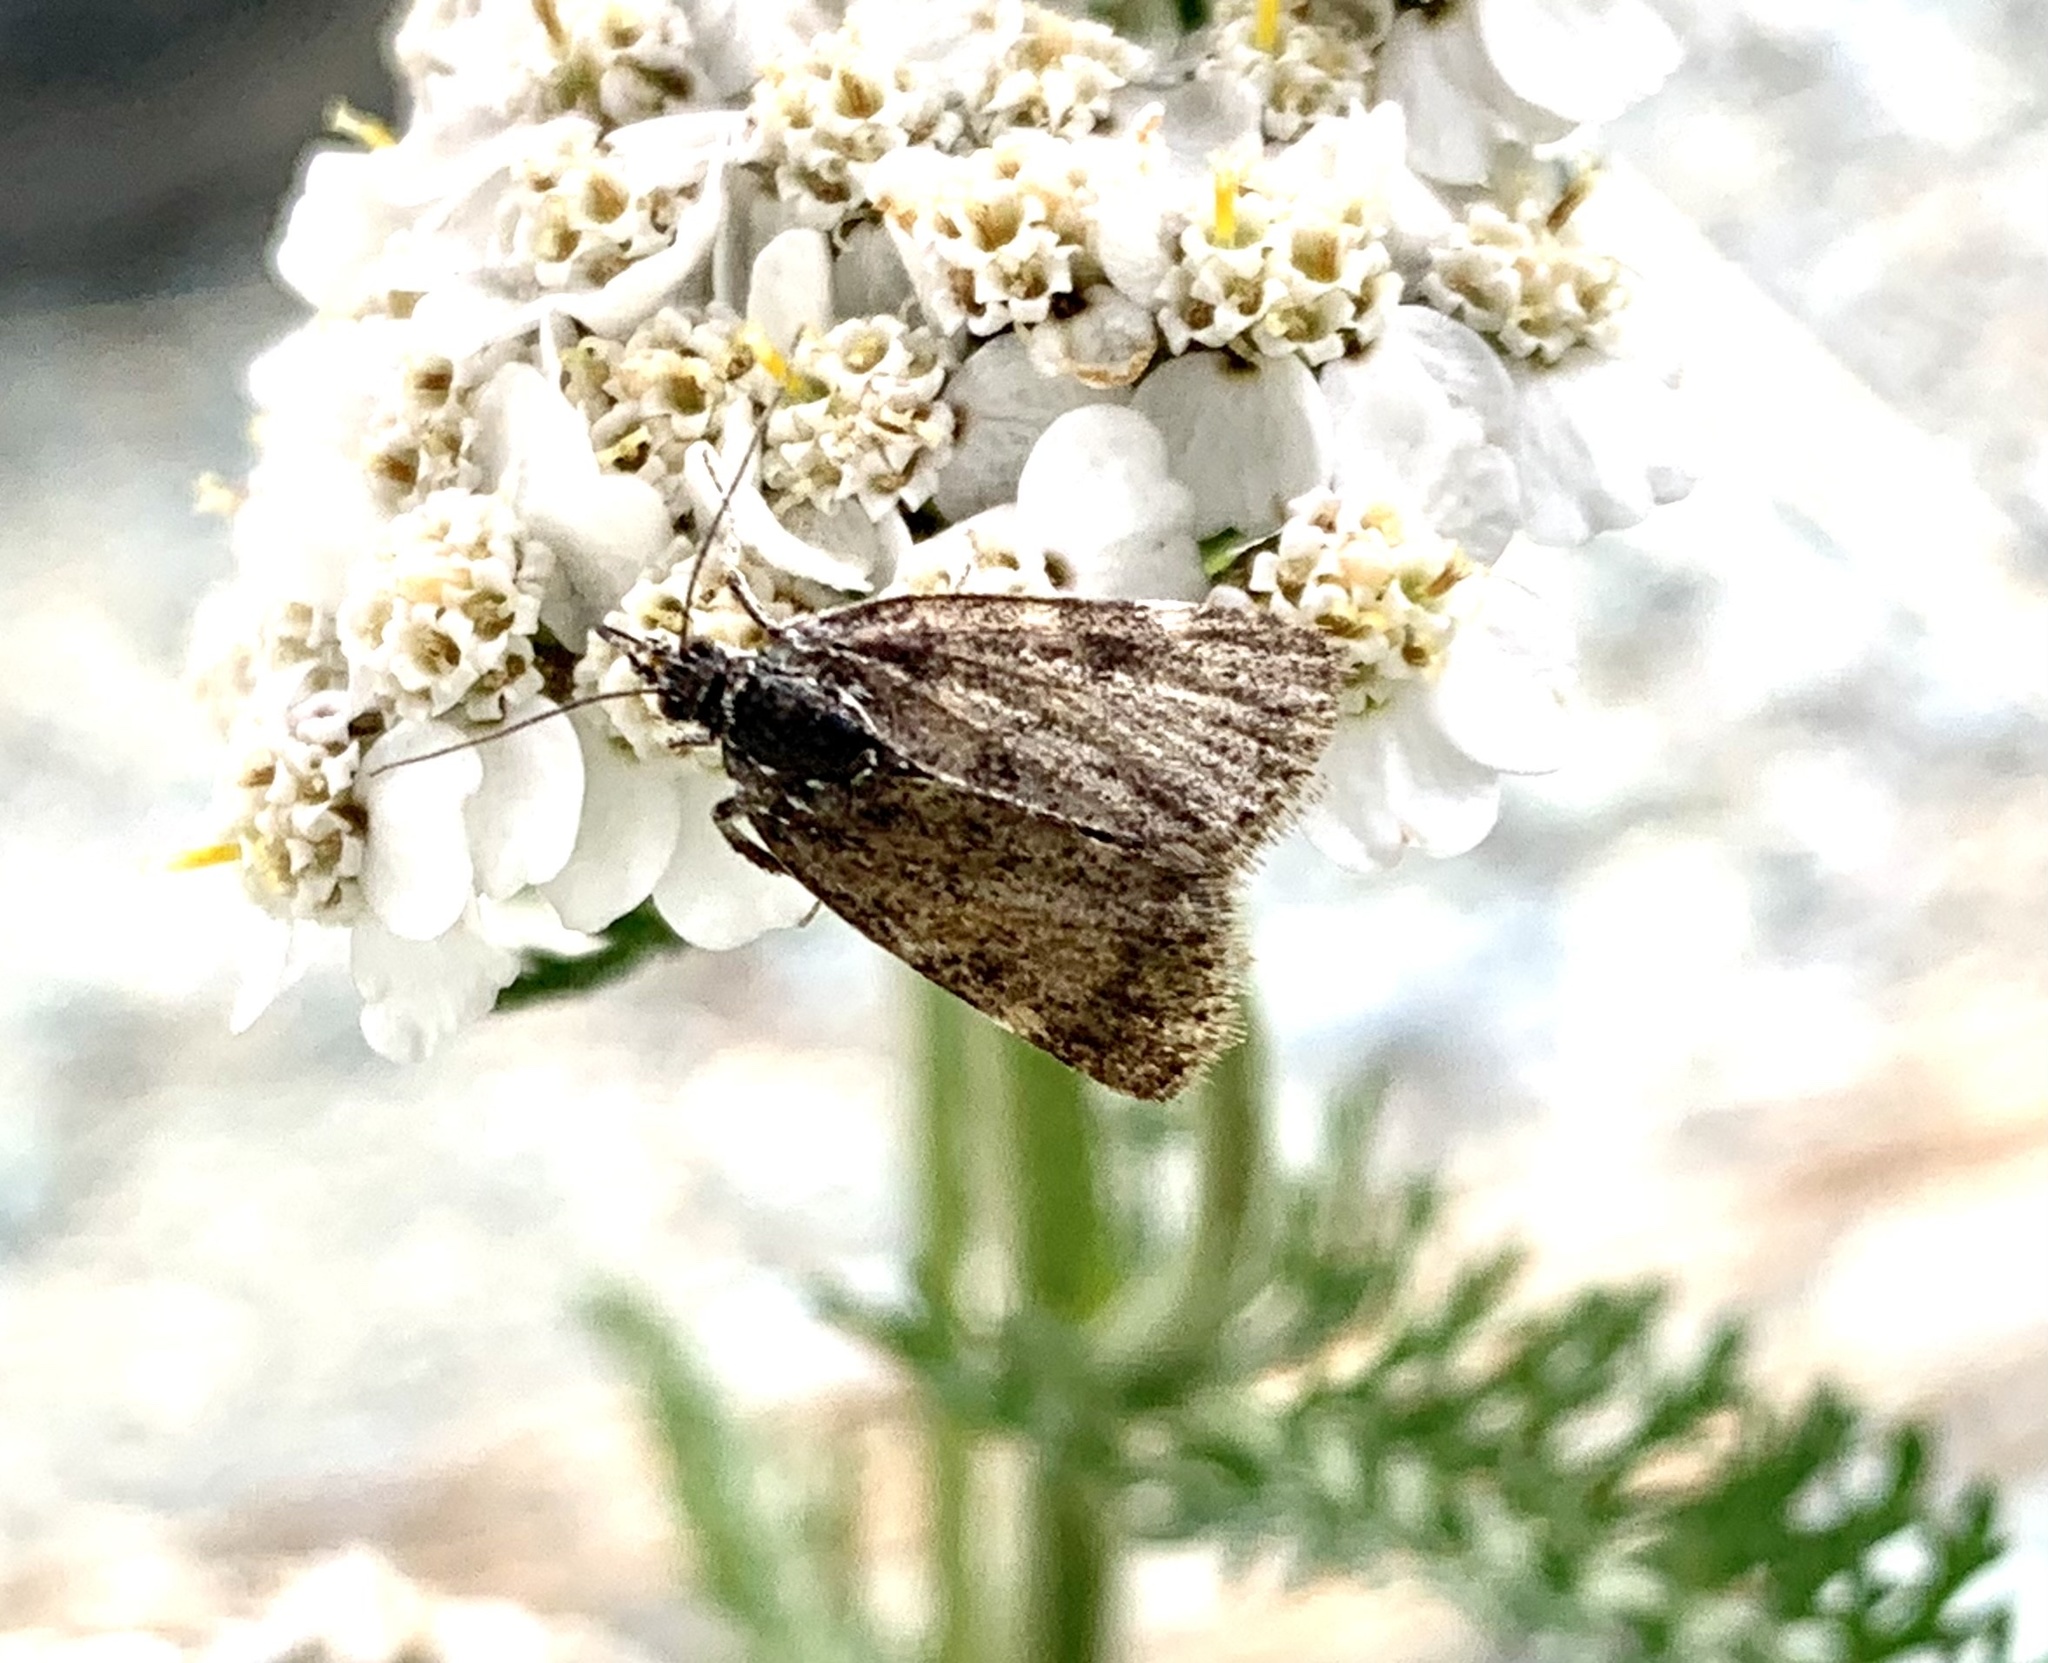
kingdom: Animalia
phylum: Arthropoda
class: Insecta
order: Lepidoptera
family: Crambidae
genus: Pyrausta
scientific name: Pyrausta despicata
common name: Straw-barred pearl
